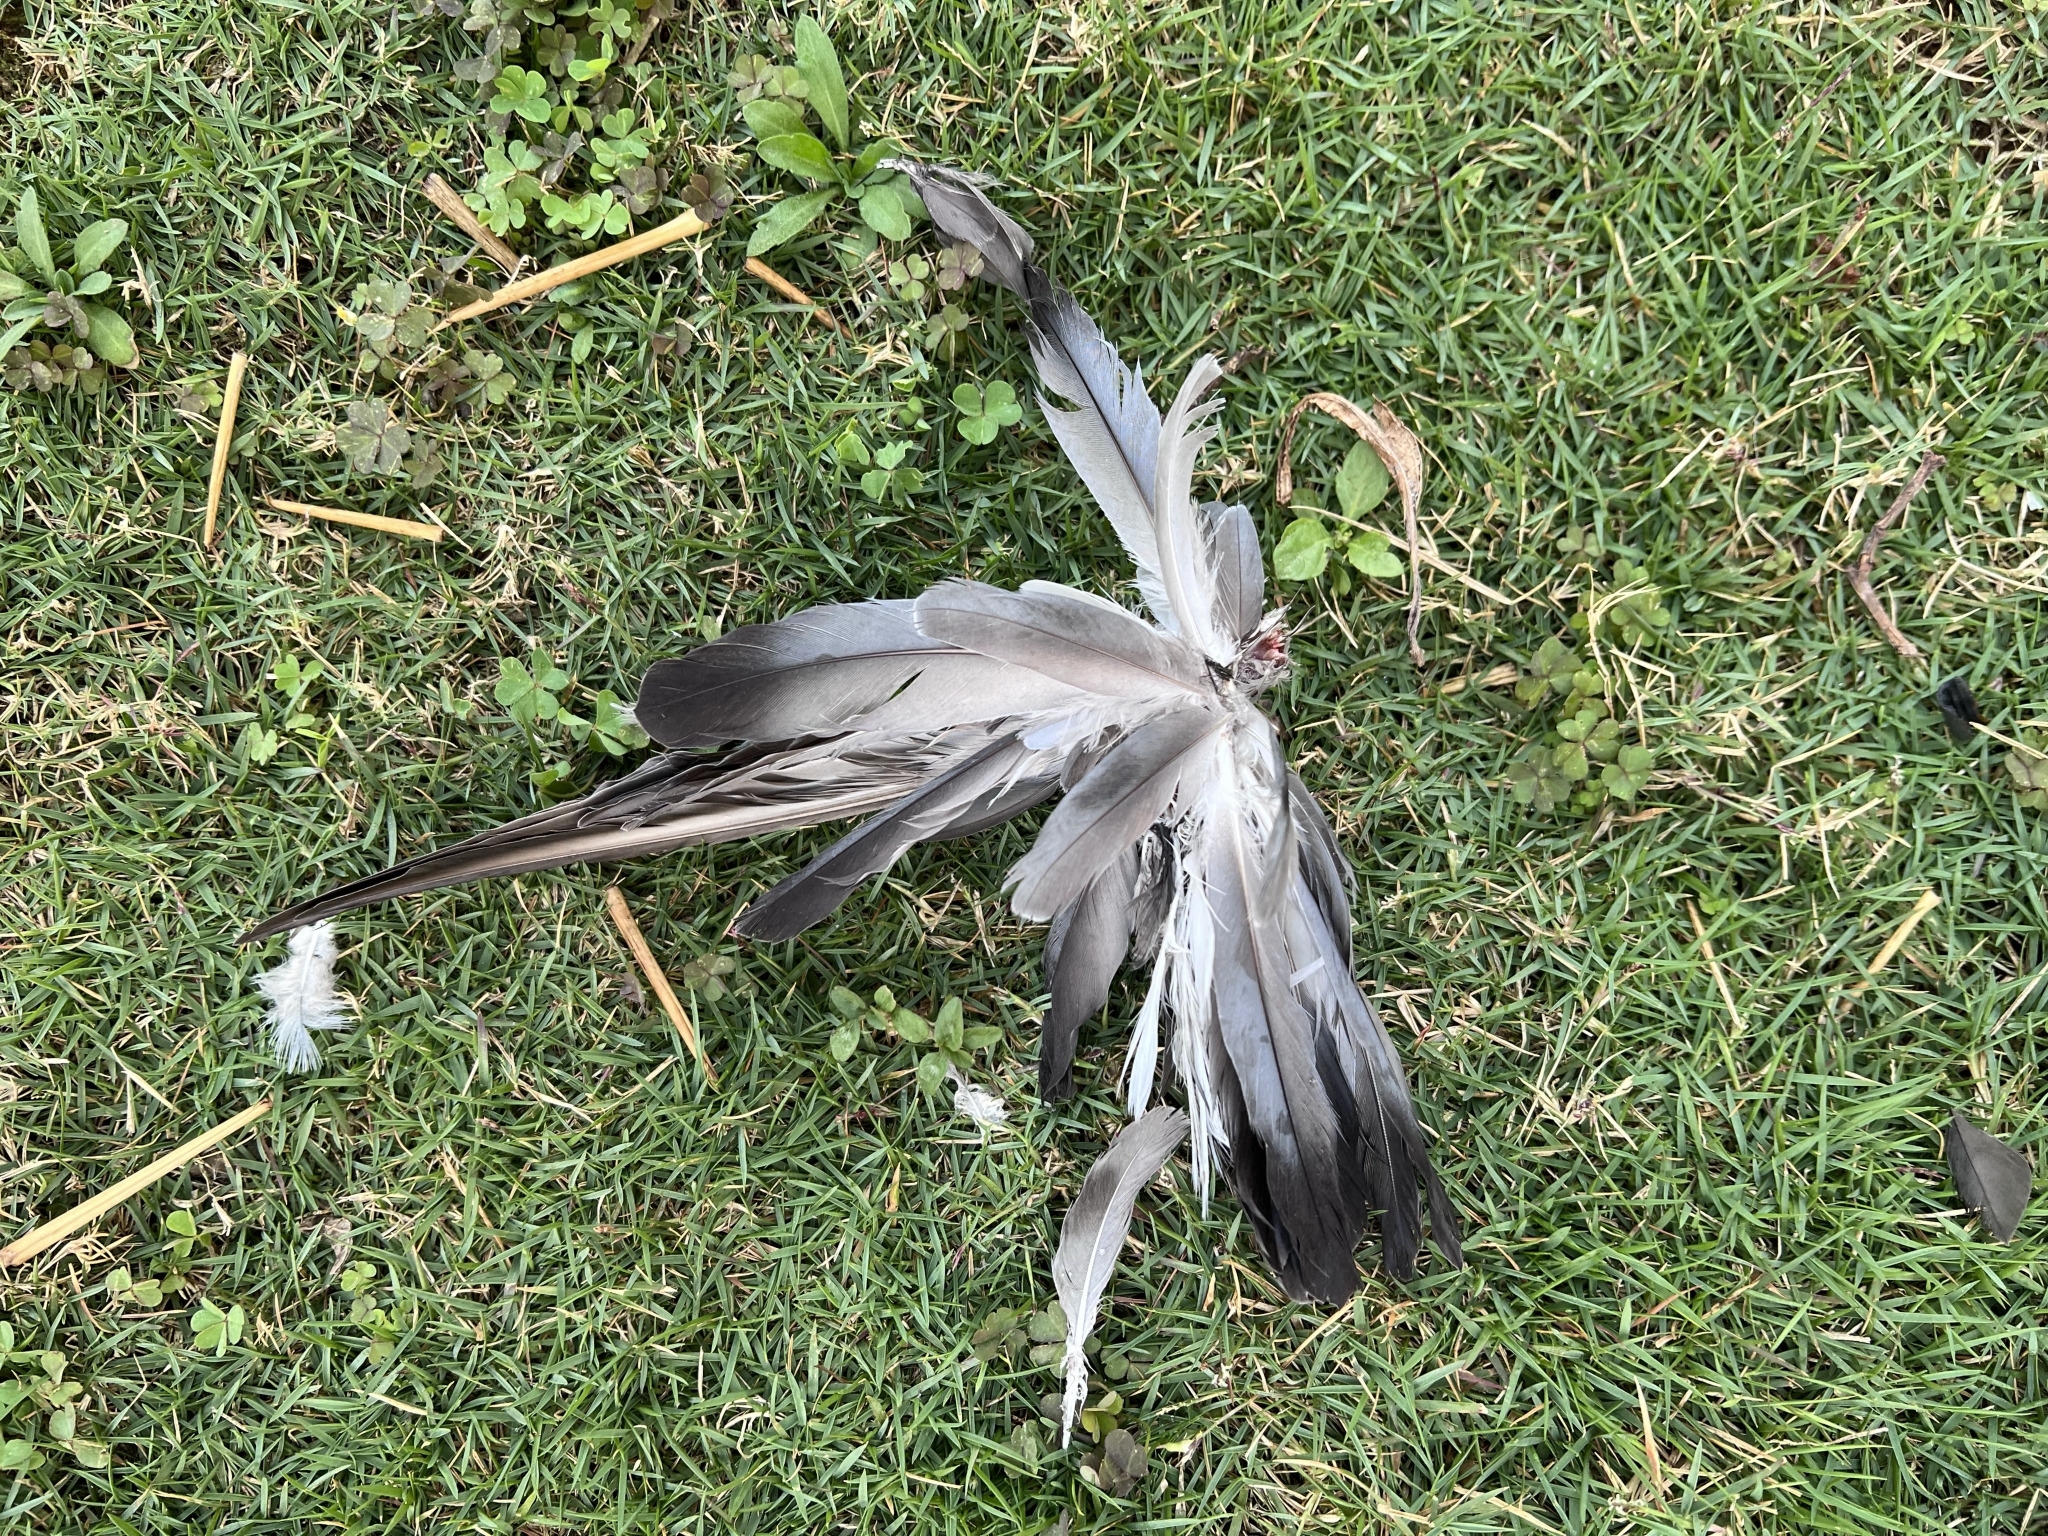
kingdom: Animalia
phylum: Chordata
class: Aves
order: Columbiformes
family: Columbidae
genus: Columba
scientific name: Columba livia
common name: Rock pigeon
